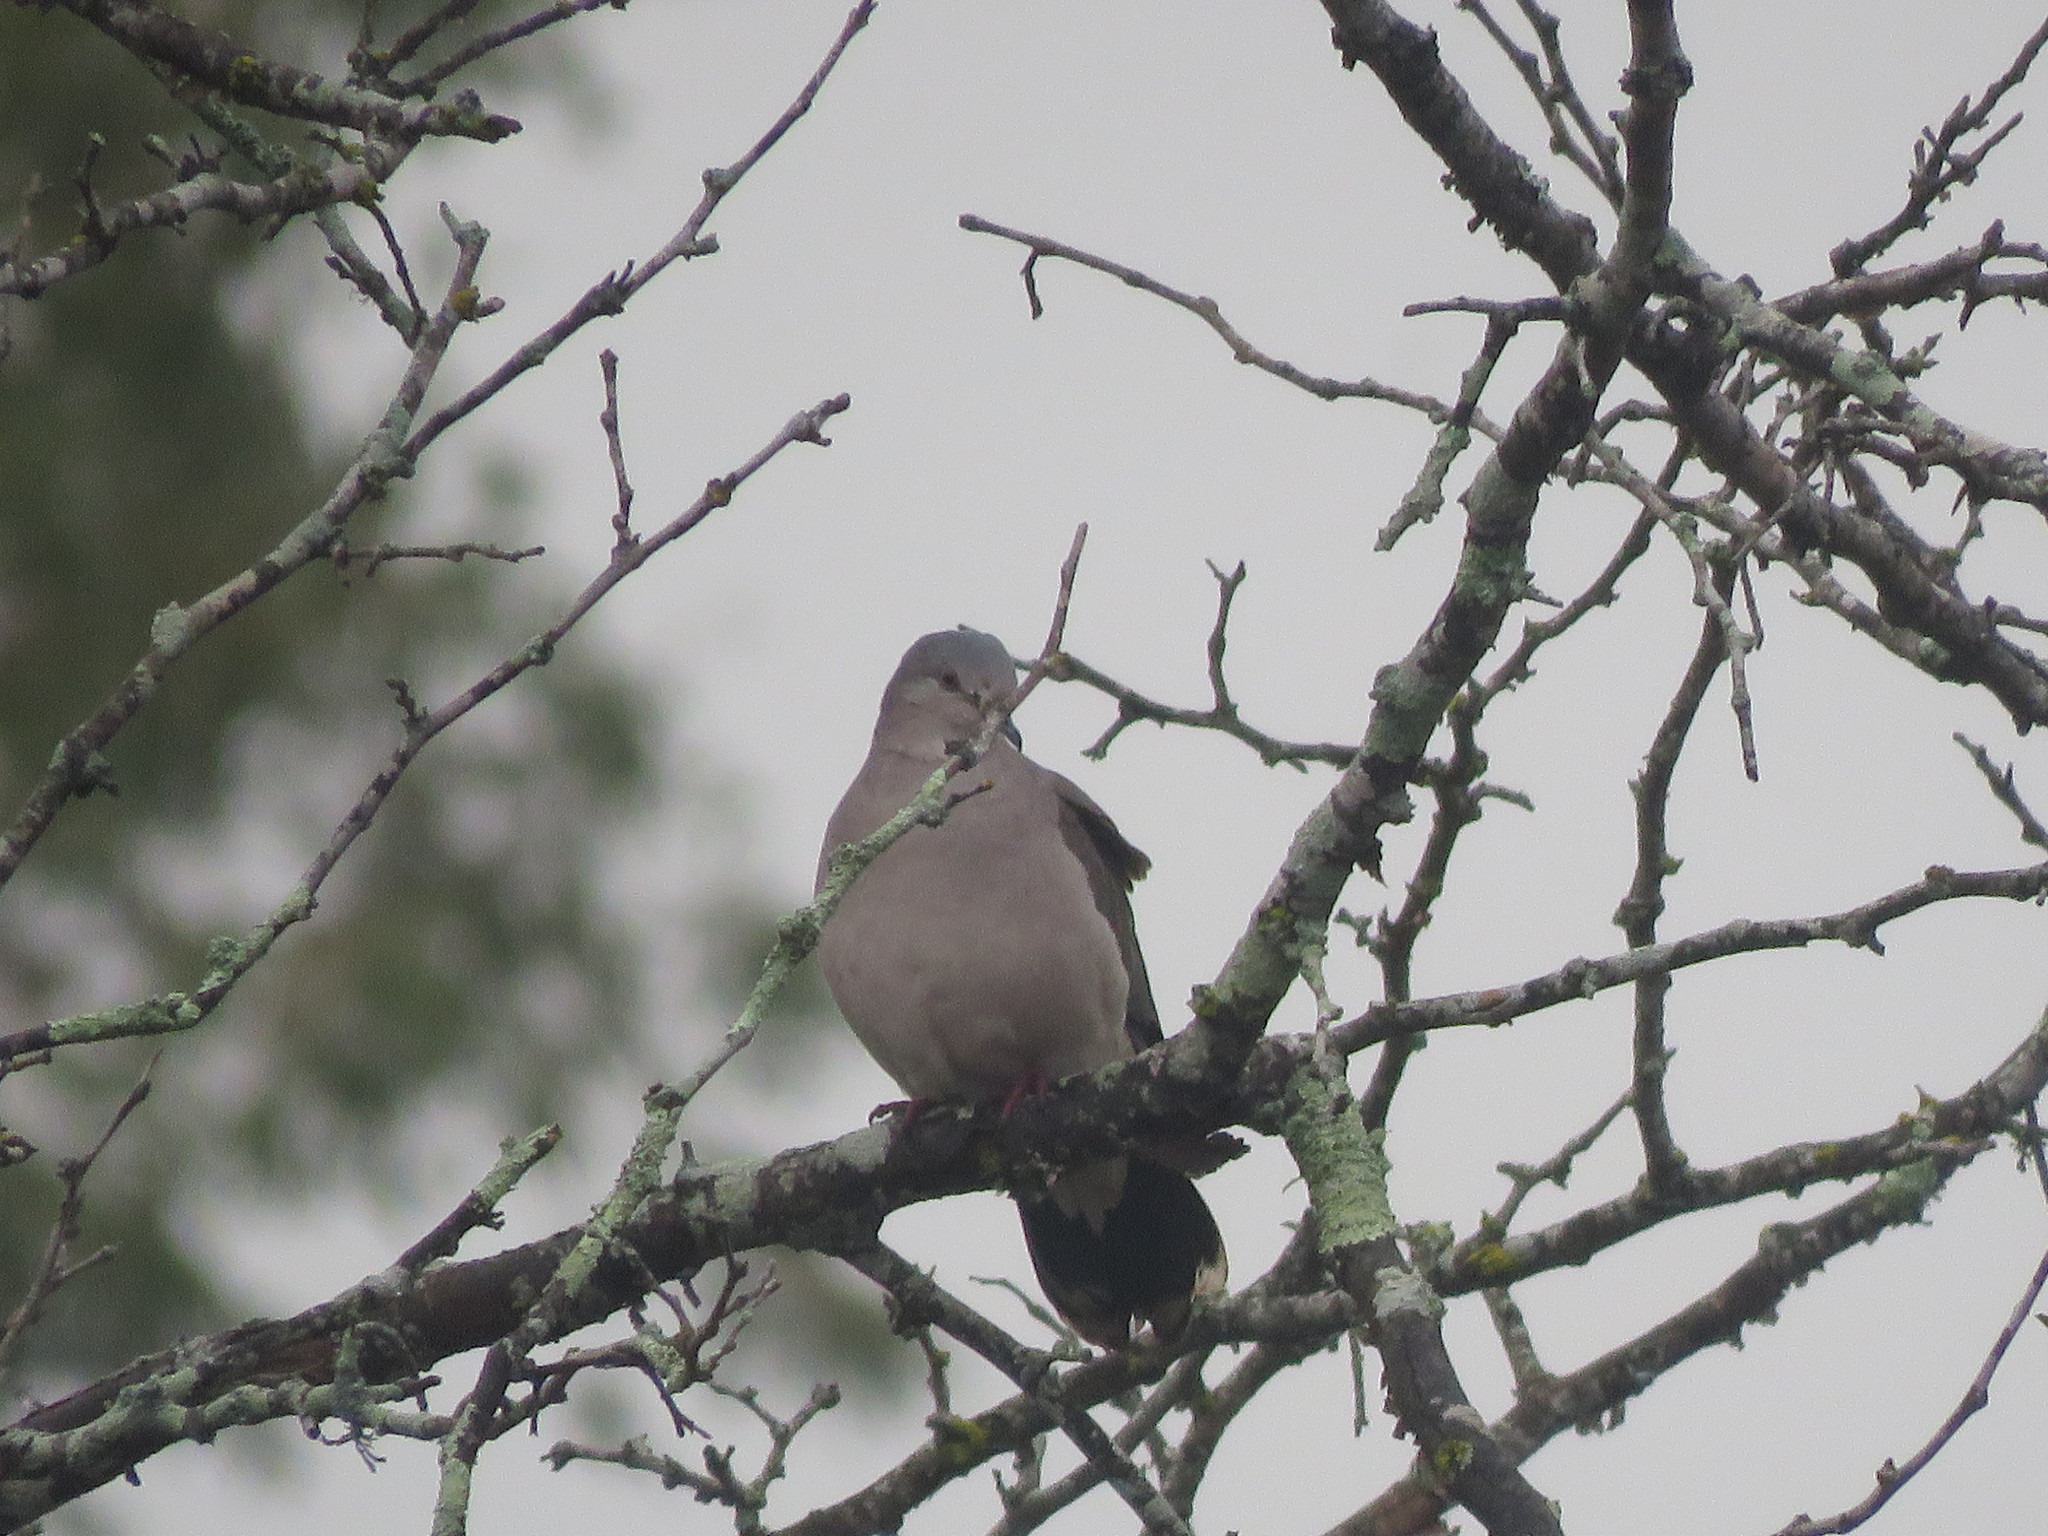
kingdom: Animalia
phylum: Chordata
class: Aves
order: Columbiformes
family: Columbidae
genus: Leptotila
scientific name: Leptotila verreauxi
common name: White-tipped dove
